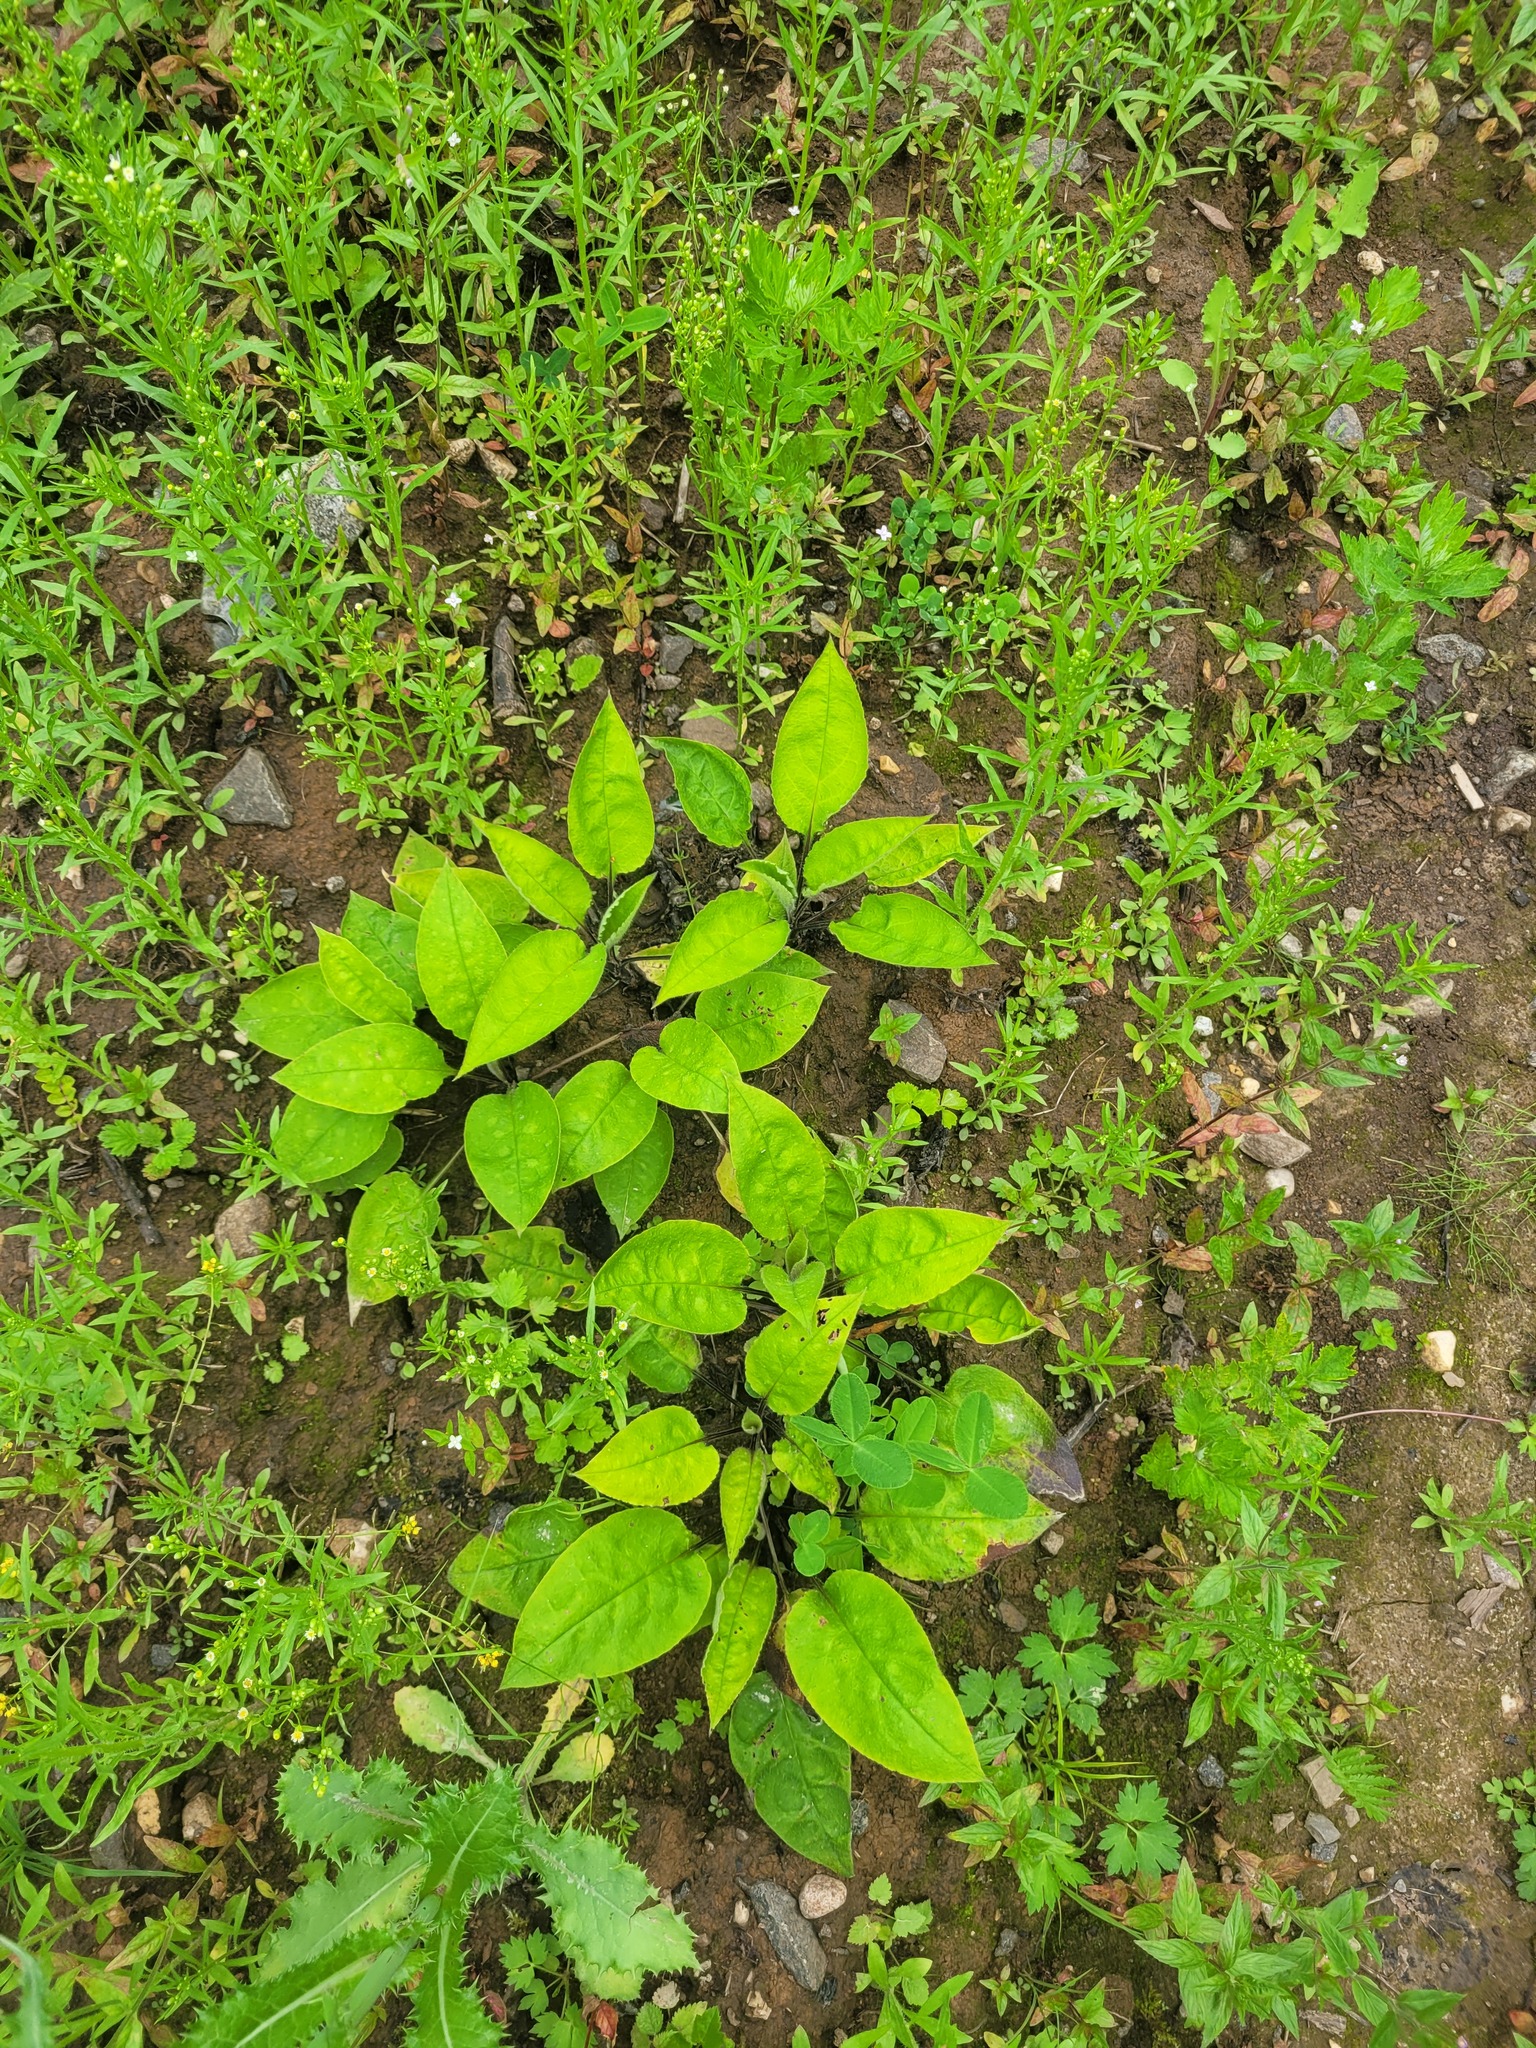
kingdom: Plantae
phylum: Tracheophyta
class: Magnoliopsida
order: Boraginales
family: Boraginaceae
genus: Pulmonaria
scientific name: Pulmonaria obscura
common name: Suffolk lungwort
